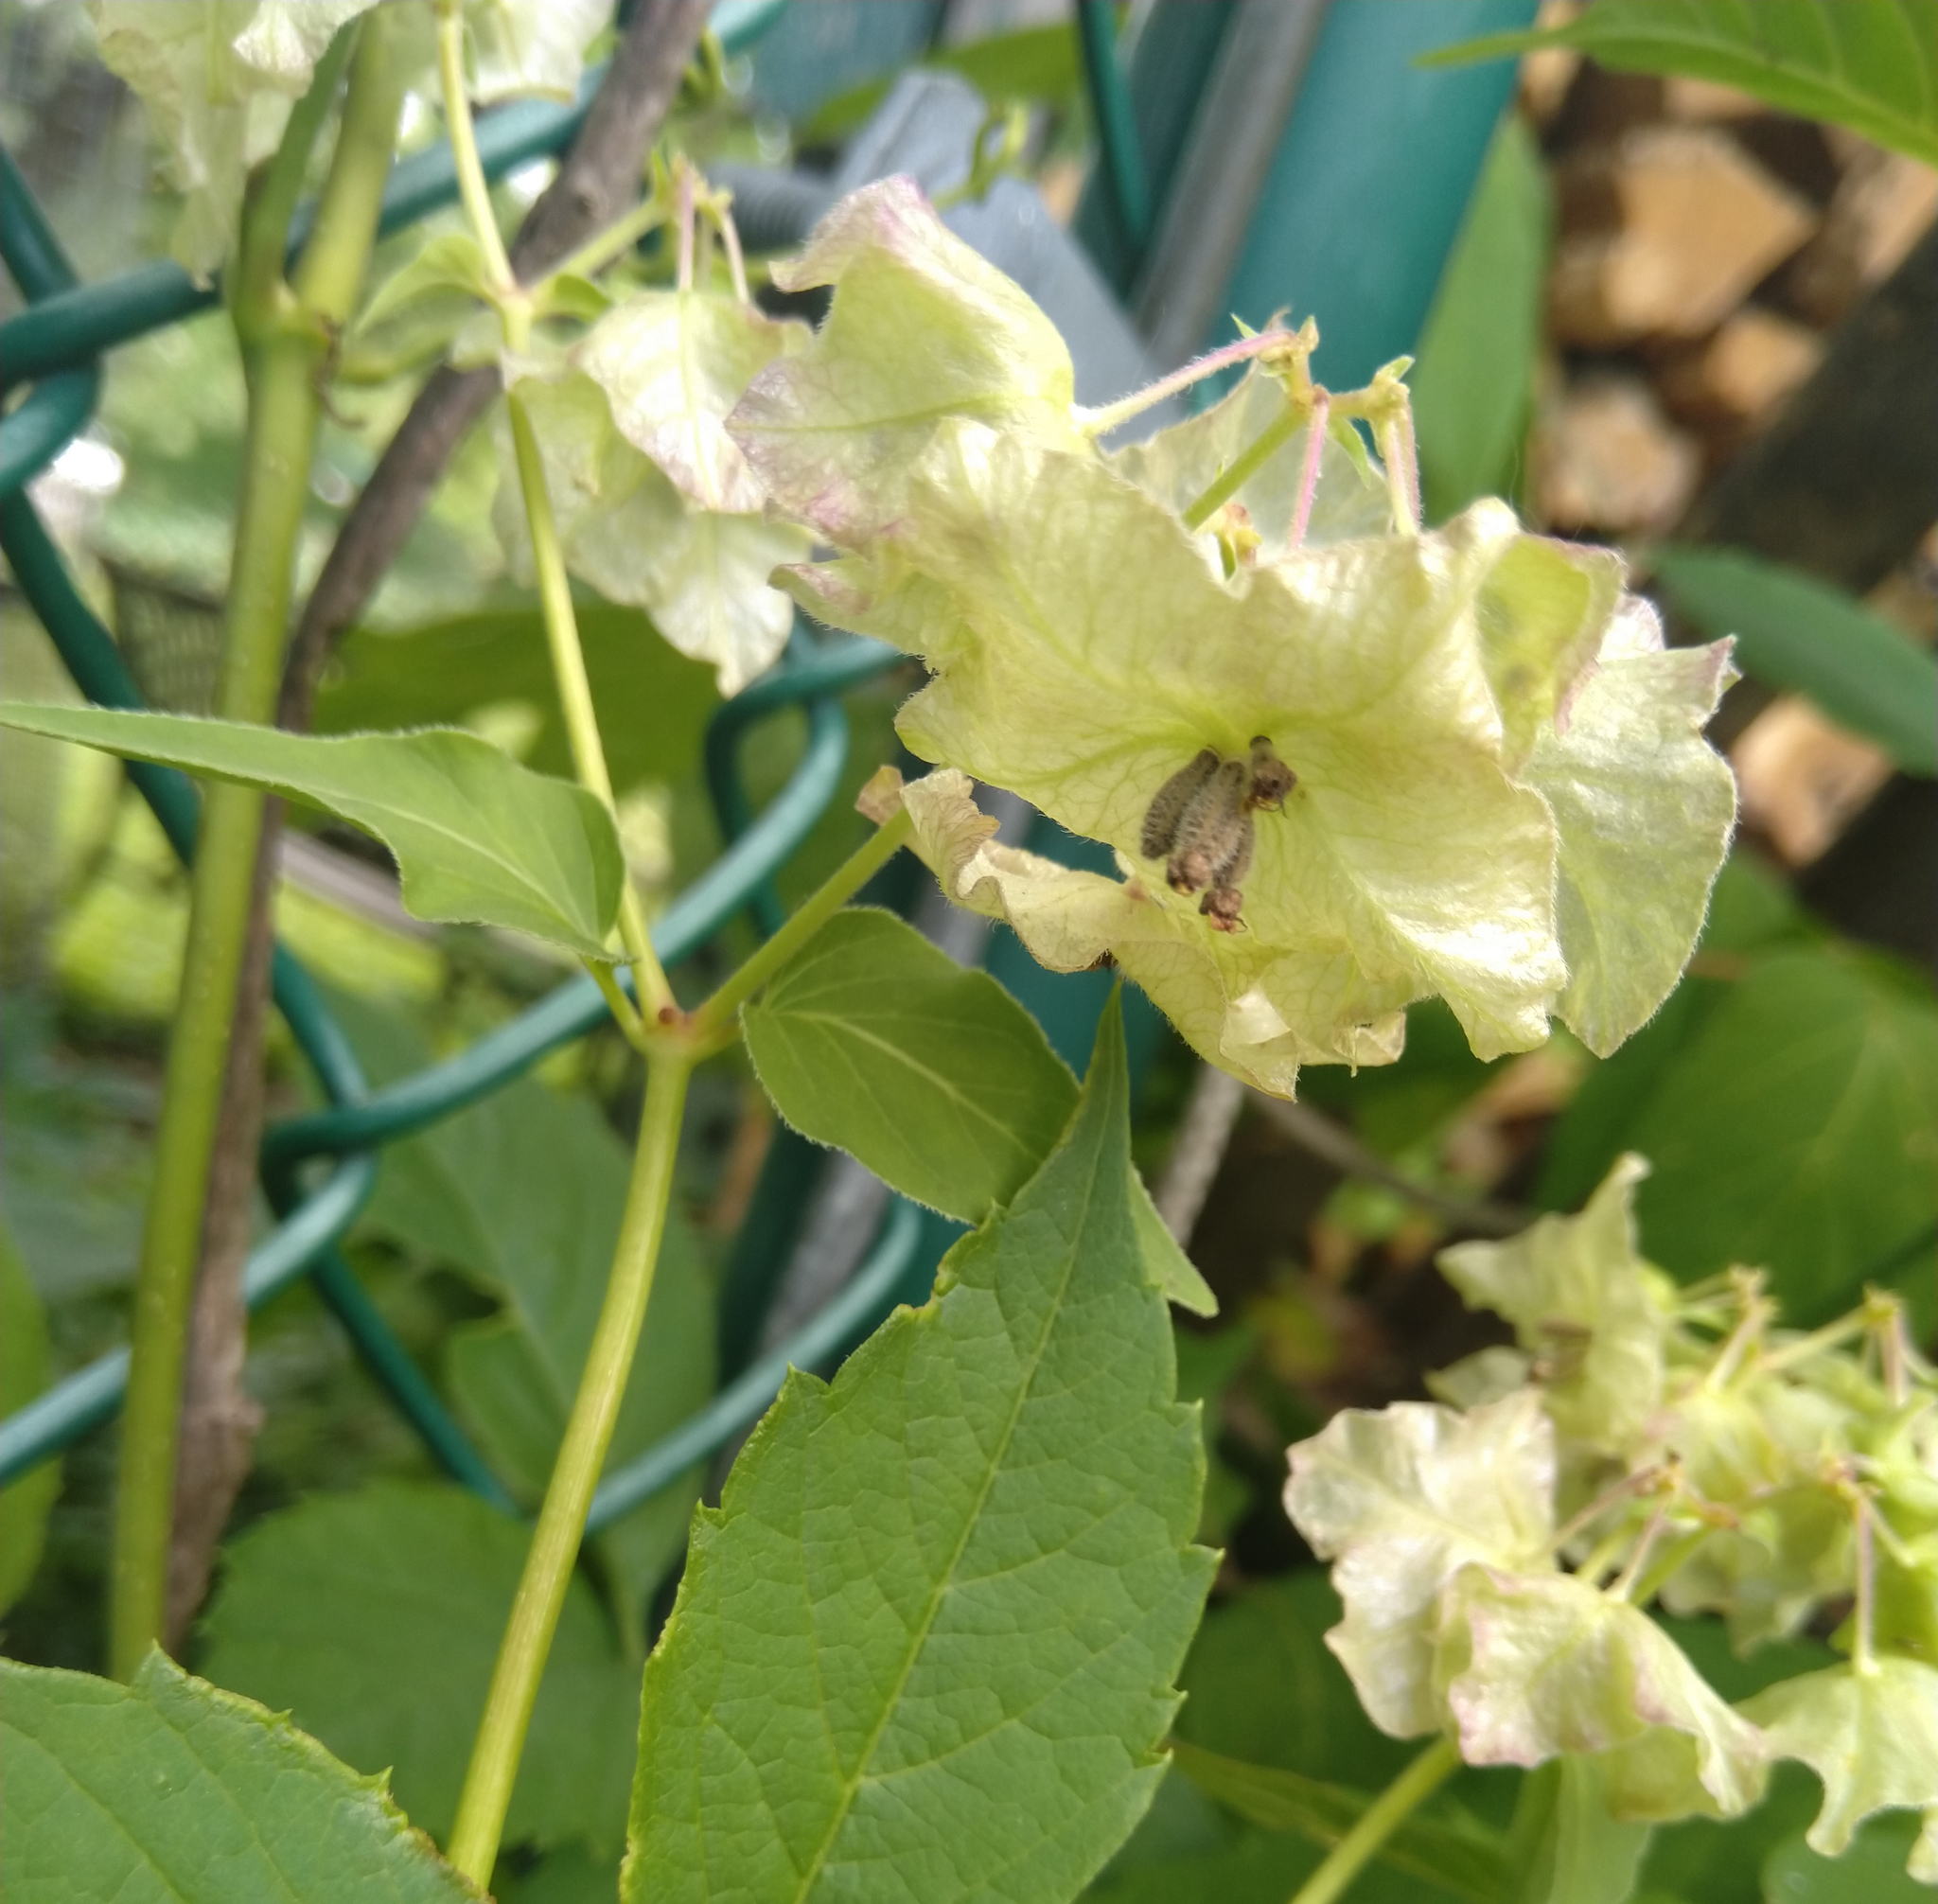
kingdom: Plantae
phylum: Tracheophyta
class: Magnoliopsida
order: Caryophyllales
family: Nyctaginaceae
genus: Mirabilis
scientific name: Mirabilis nyctaginea
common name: Umbrella wort
